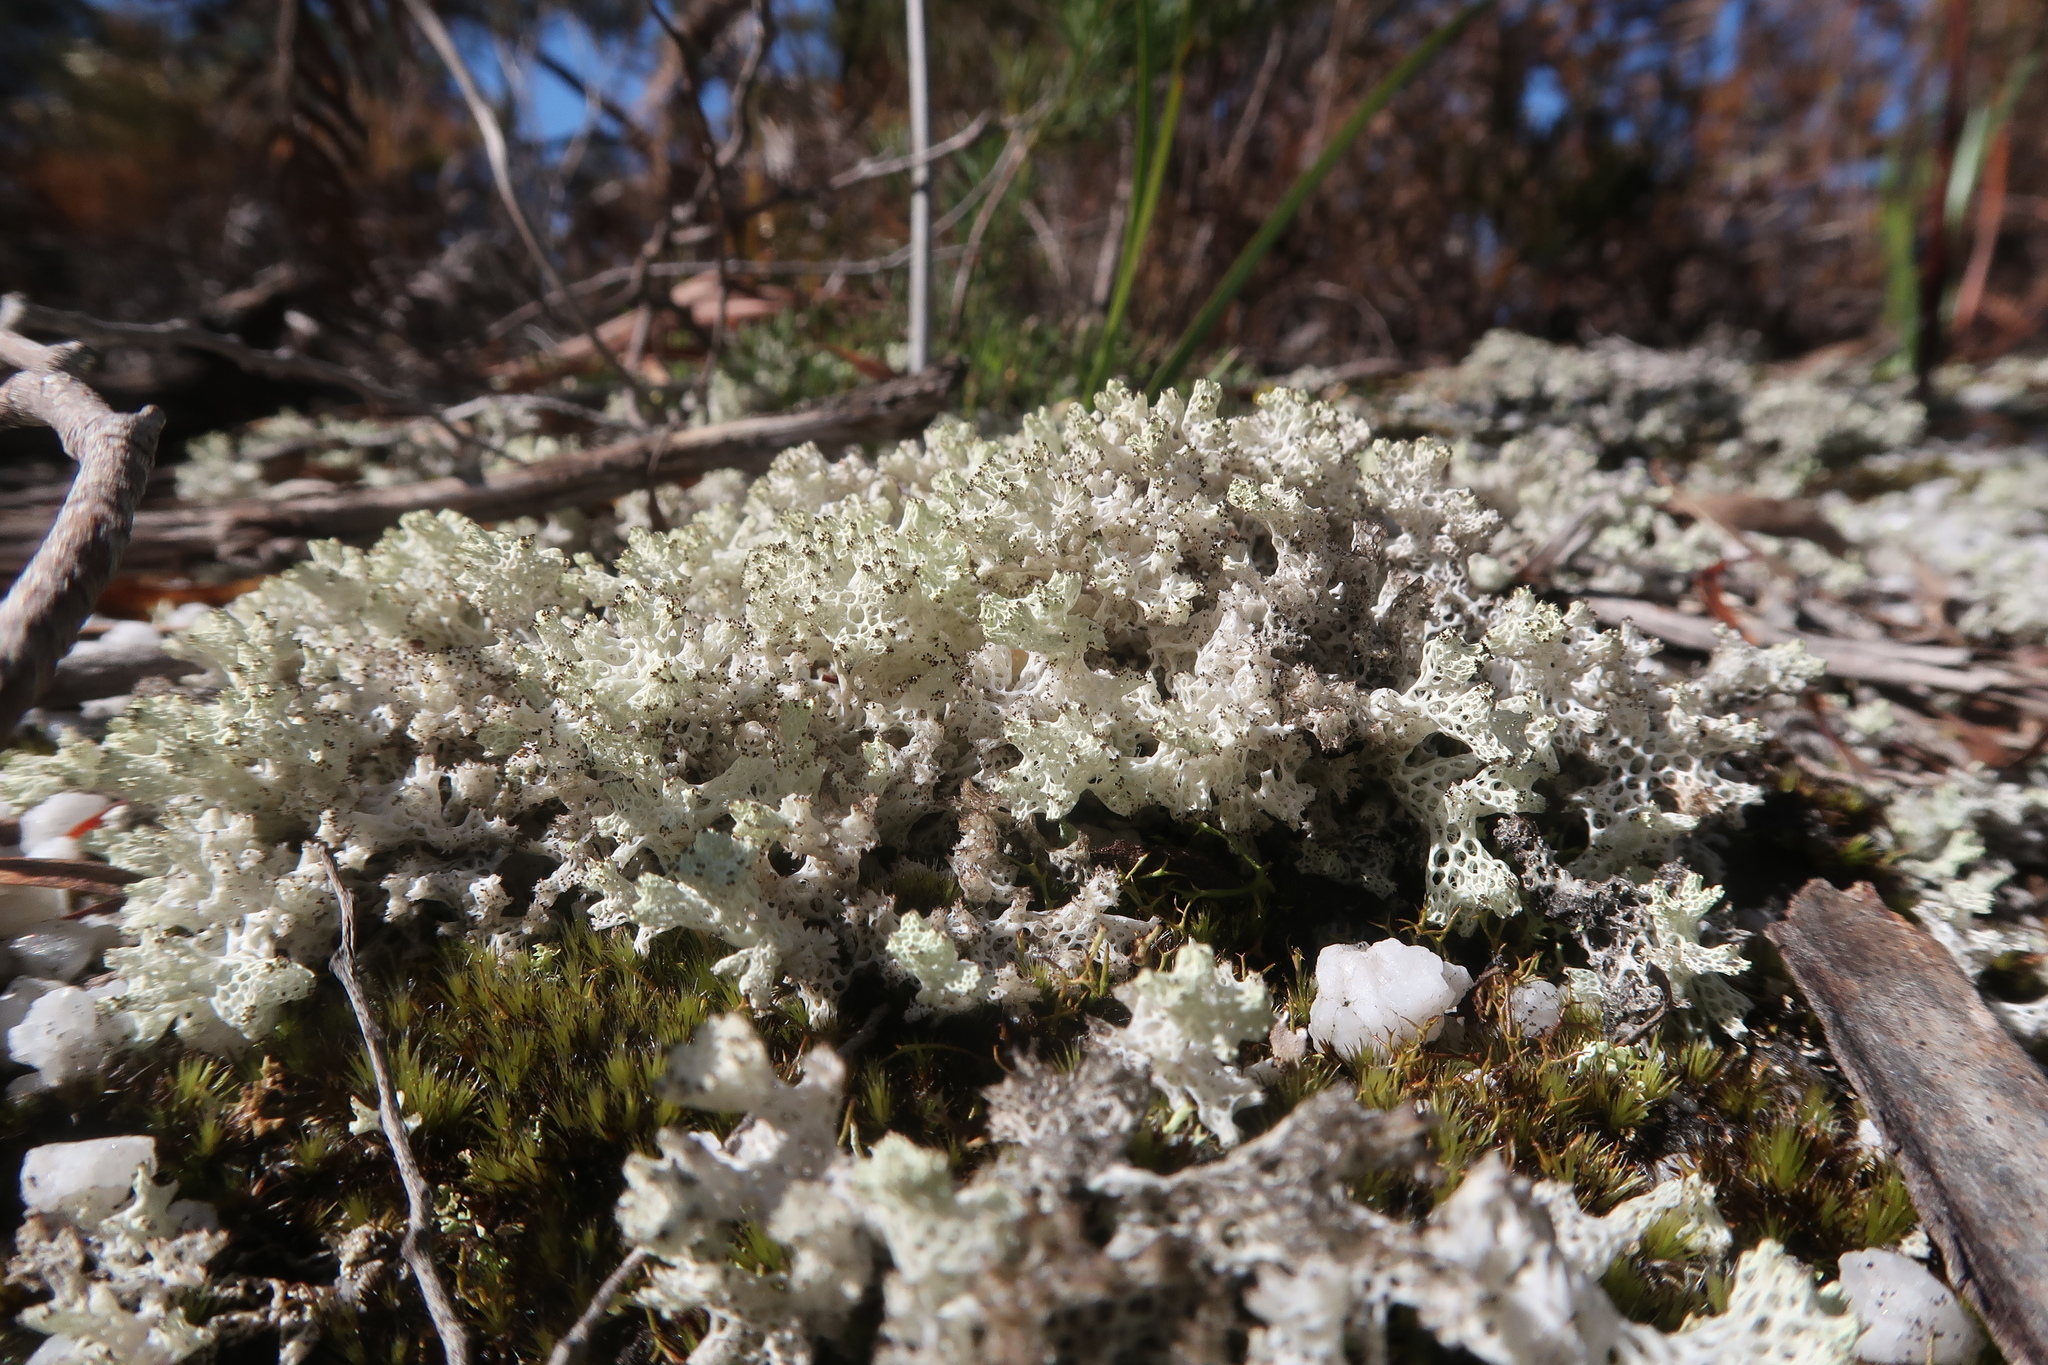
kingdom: Fungi
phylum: Ascomycota
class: Lecanoromycetes
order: Lecanorales
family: Cladoniaceae
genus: Pulchrocladia
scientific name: Pulchrocladia retipora
